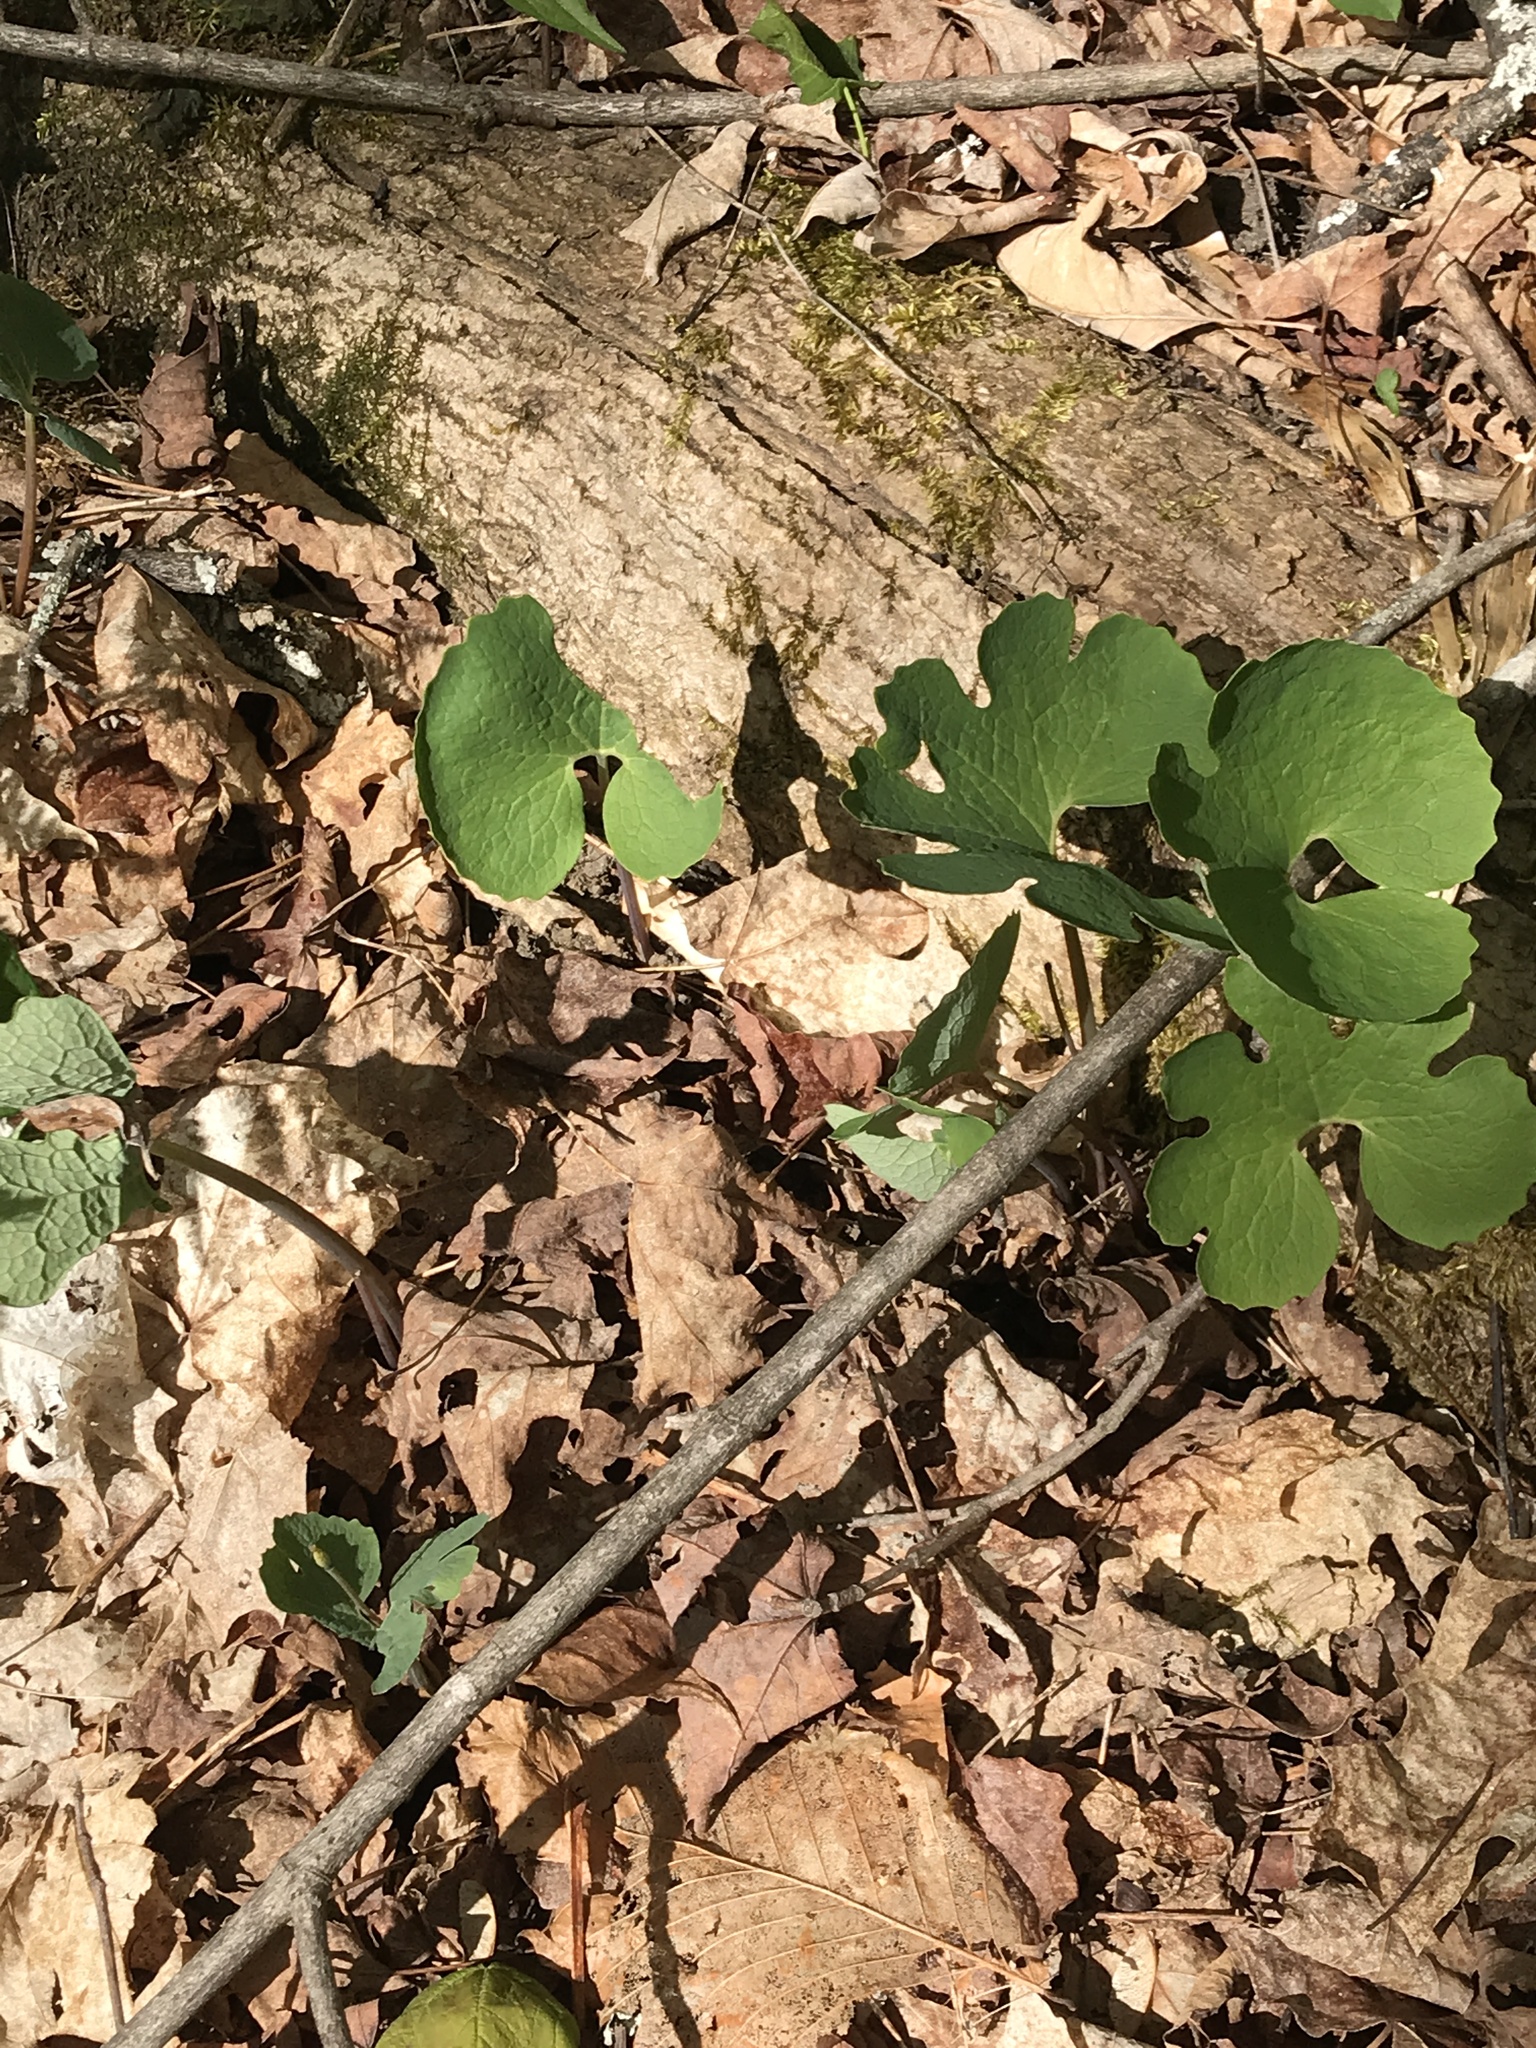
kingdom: Plantae
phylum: Tracheophyta
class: Magnoliopsida
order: Ranunculales
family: Papaveraceae
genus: Sanguinaria
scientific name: Sanguinaria canadensis
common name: Bloodroot
